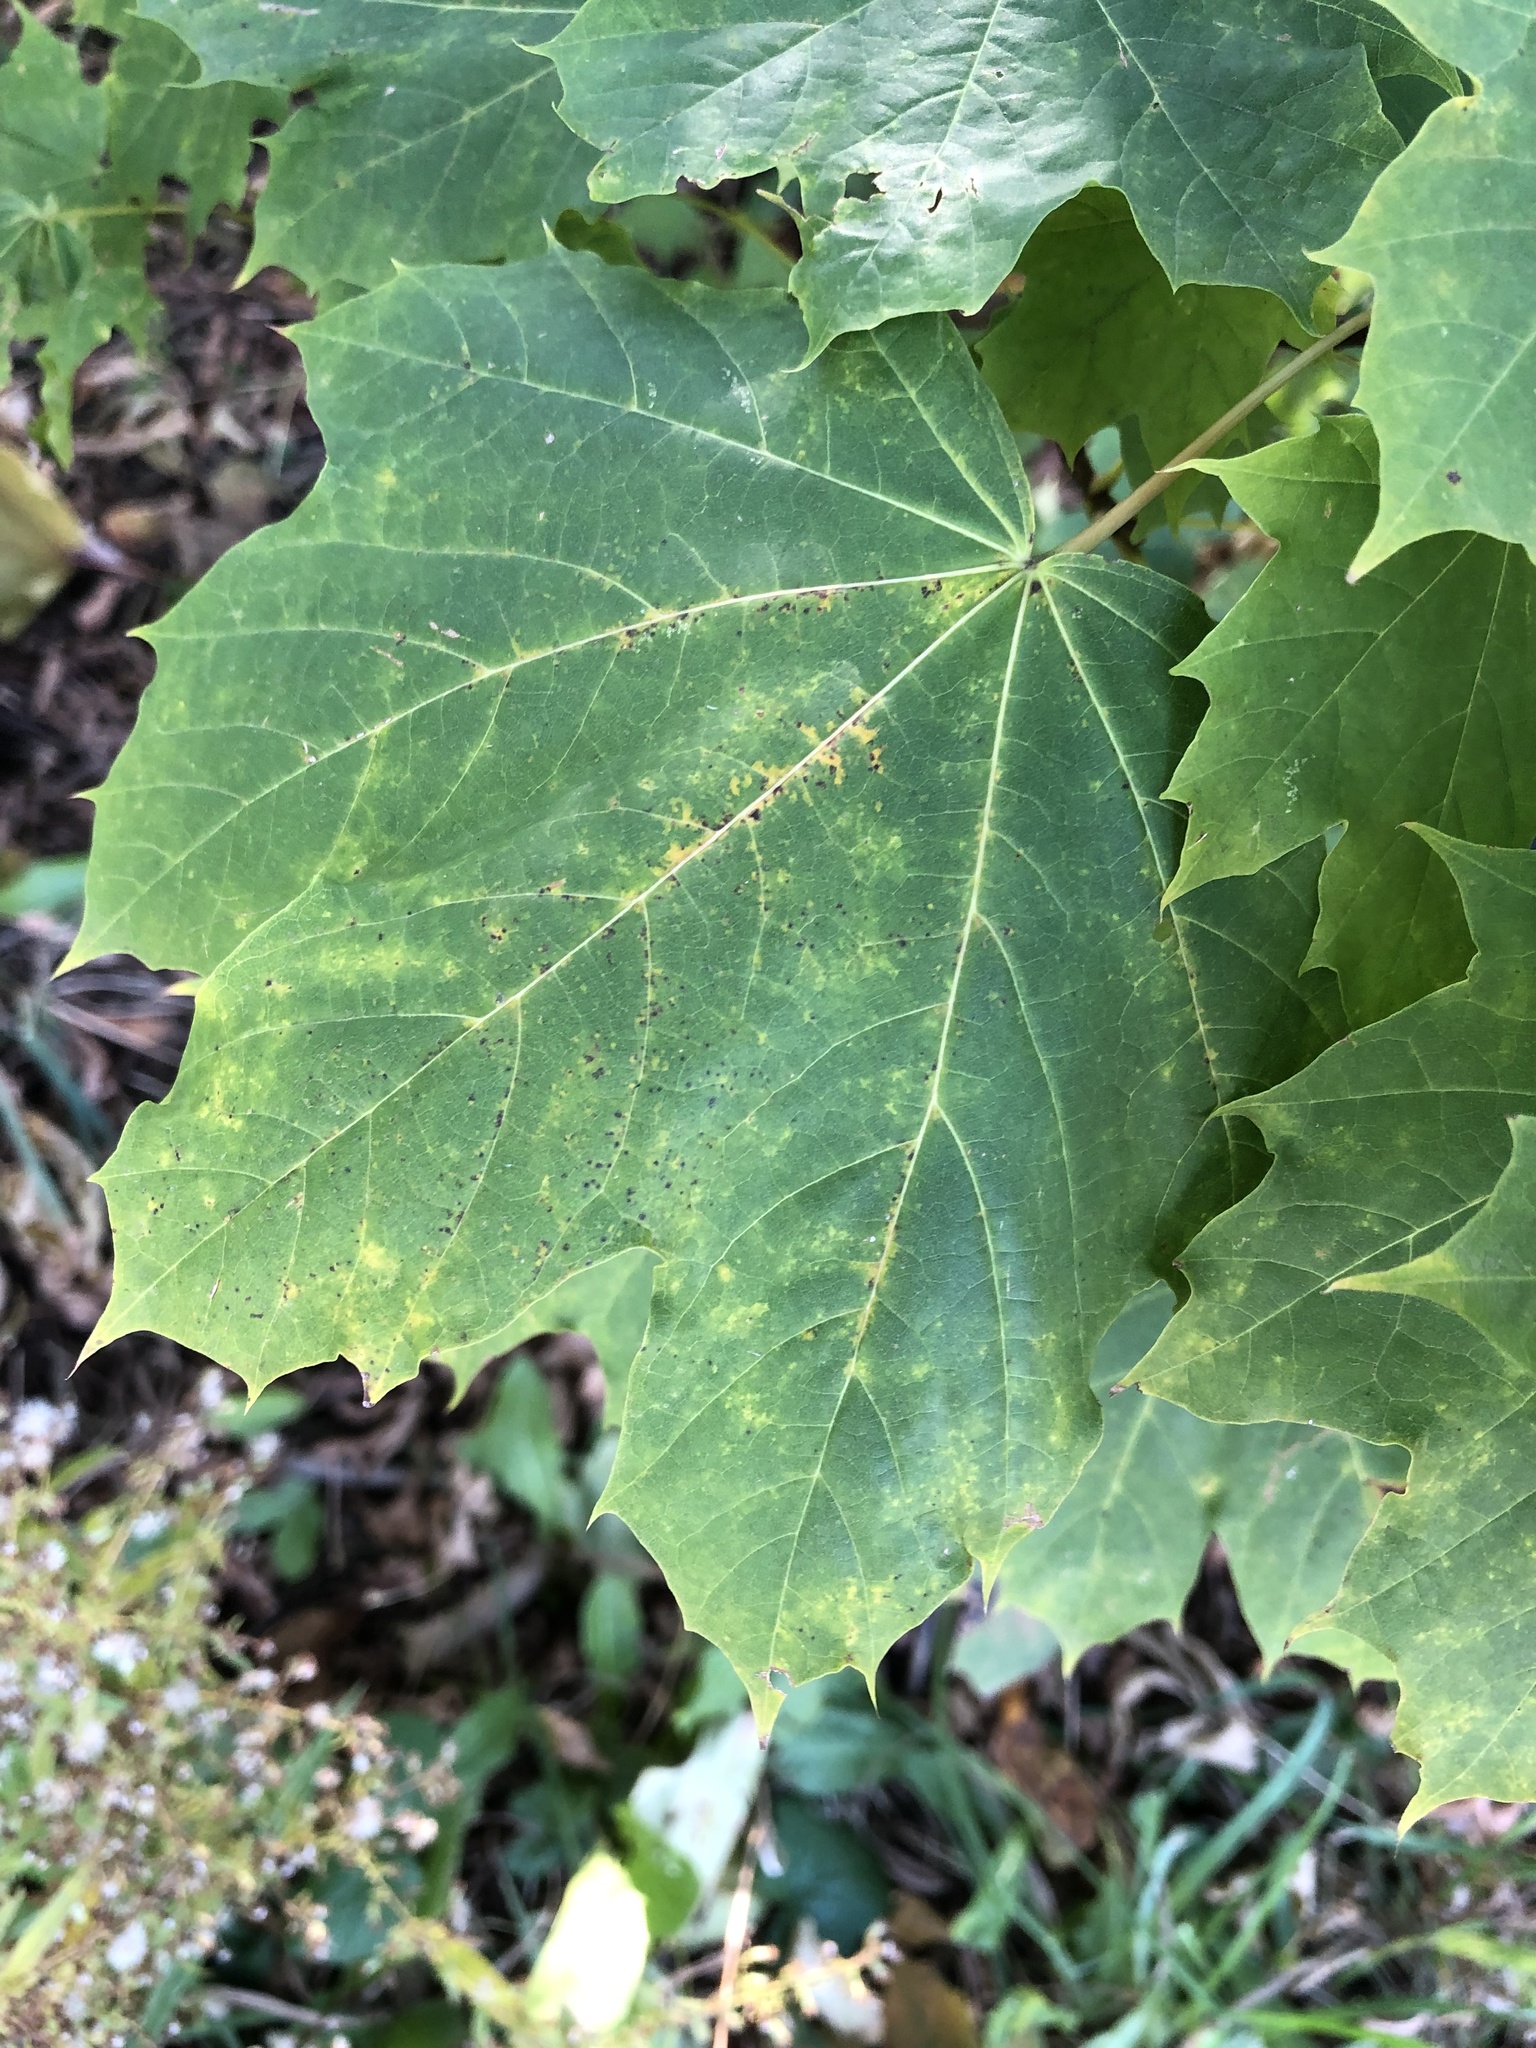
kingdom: Plantae
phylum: Tracheophyta
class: Magnoliopsida
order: Sapindales
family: Sapindaceae
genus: Acer
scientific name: Acer platanoides
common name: Norway maple
